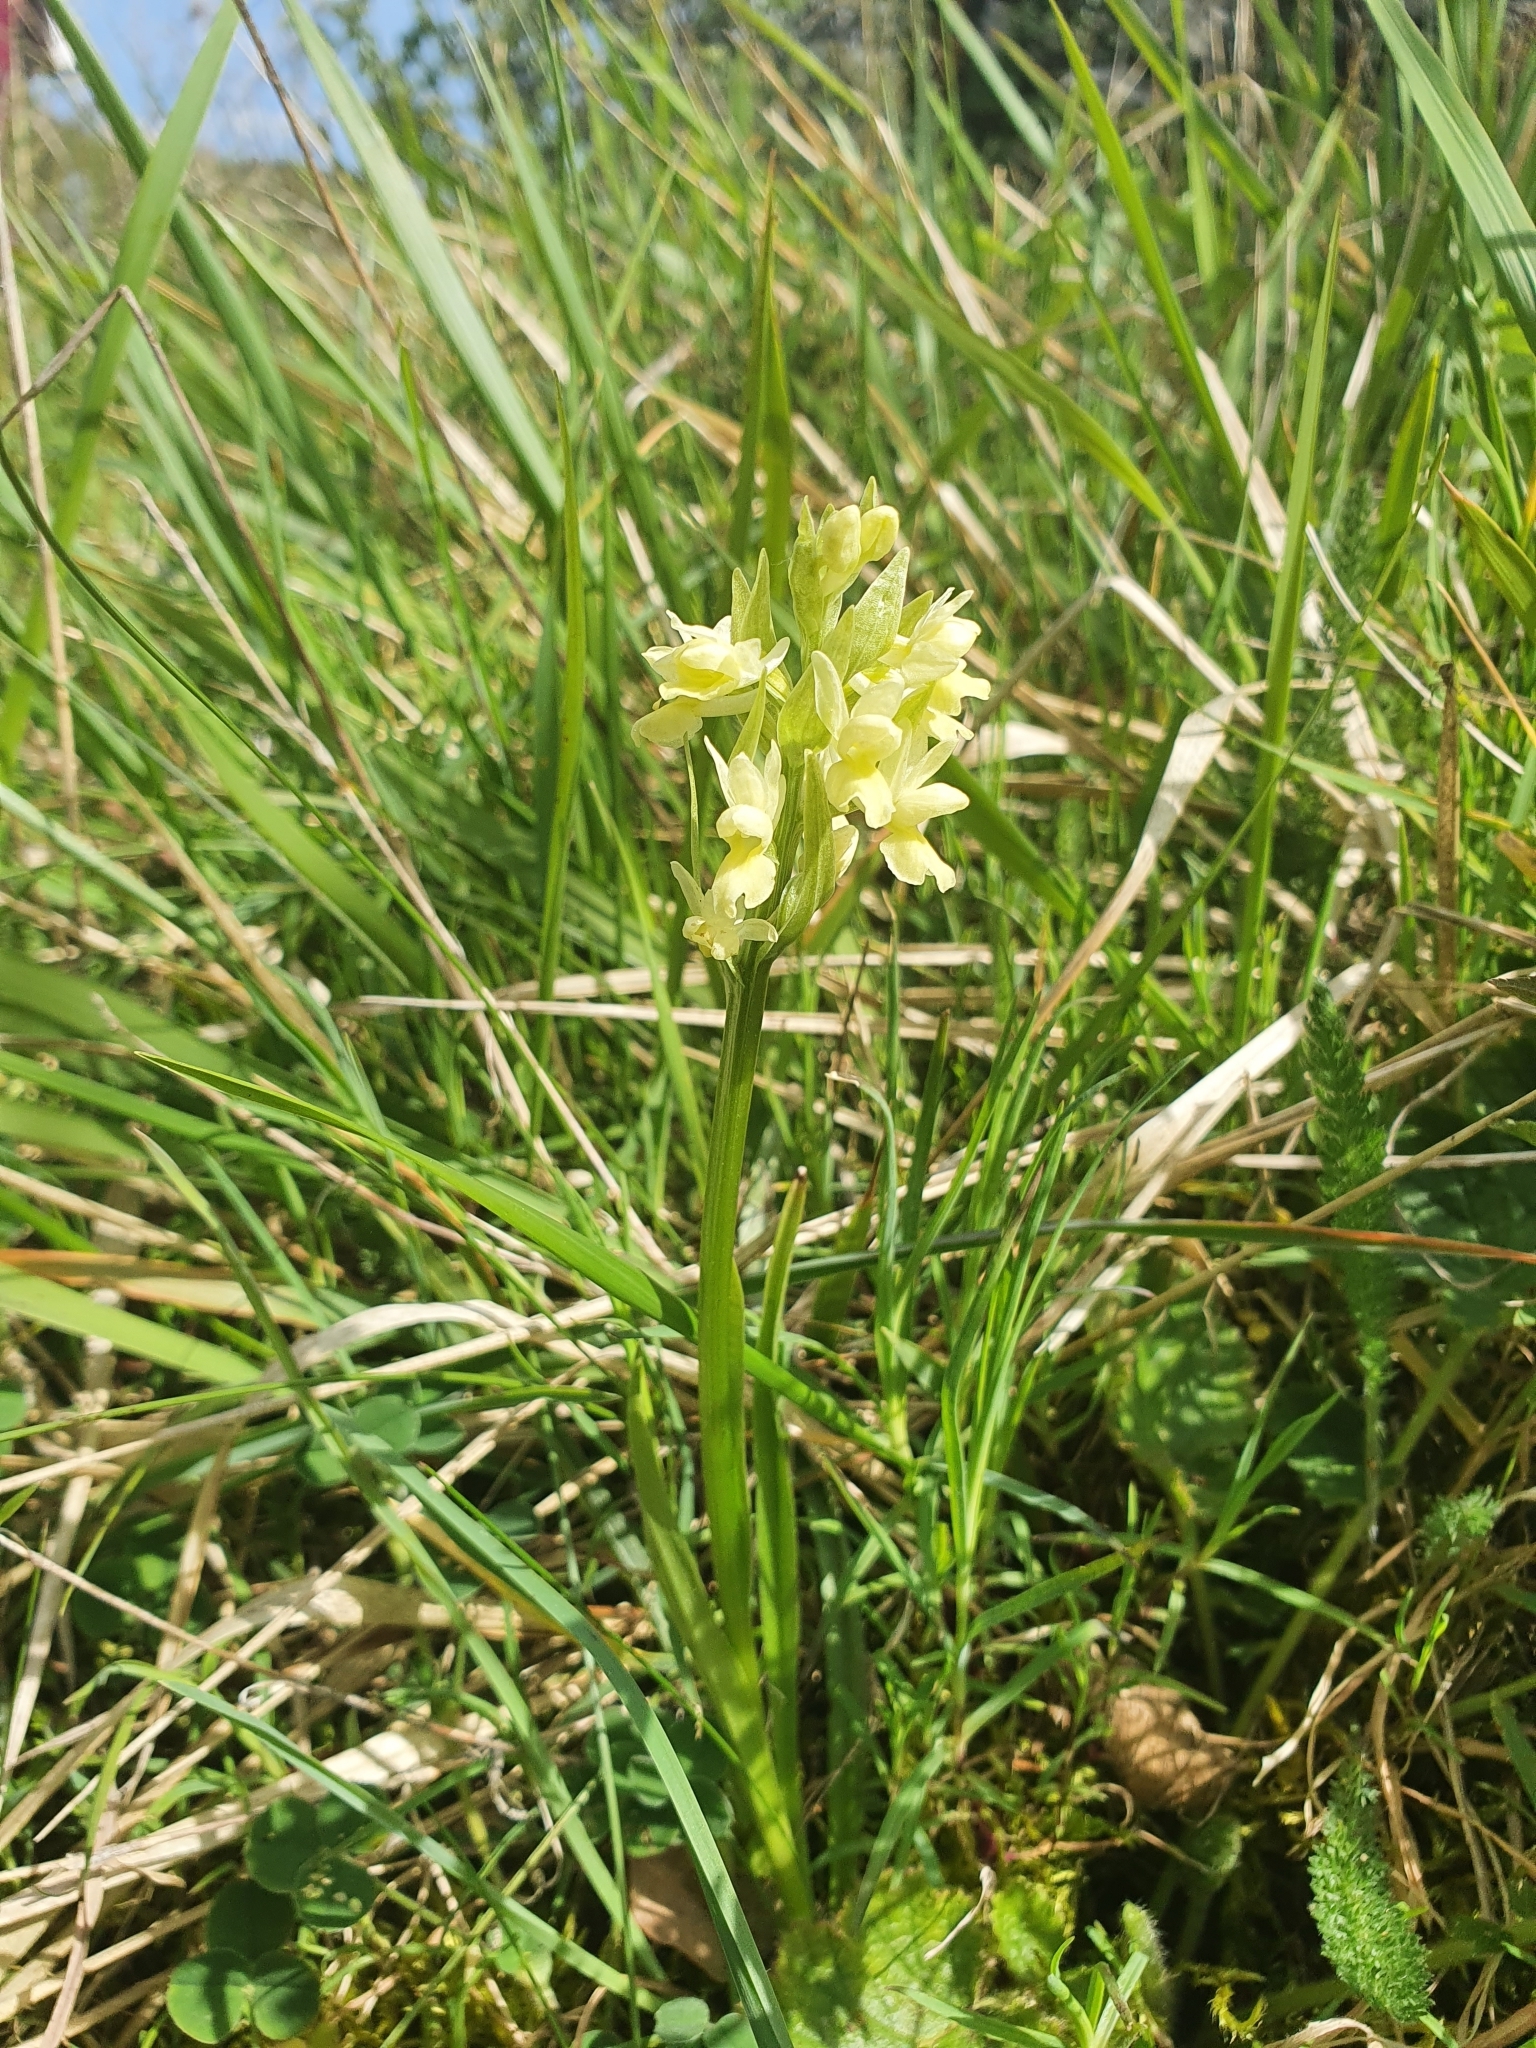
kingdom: Plantae
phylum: Tracheophyta
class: Liliopsida
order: Asparagales
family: Orchidaceae
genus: Dactylorhiza
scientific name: Dactylorhiza romana
